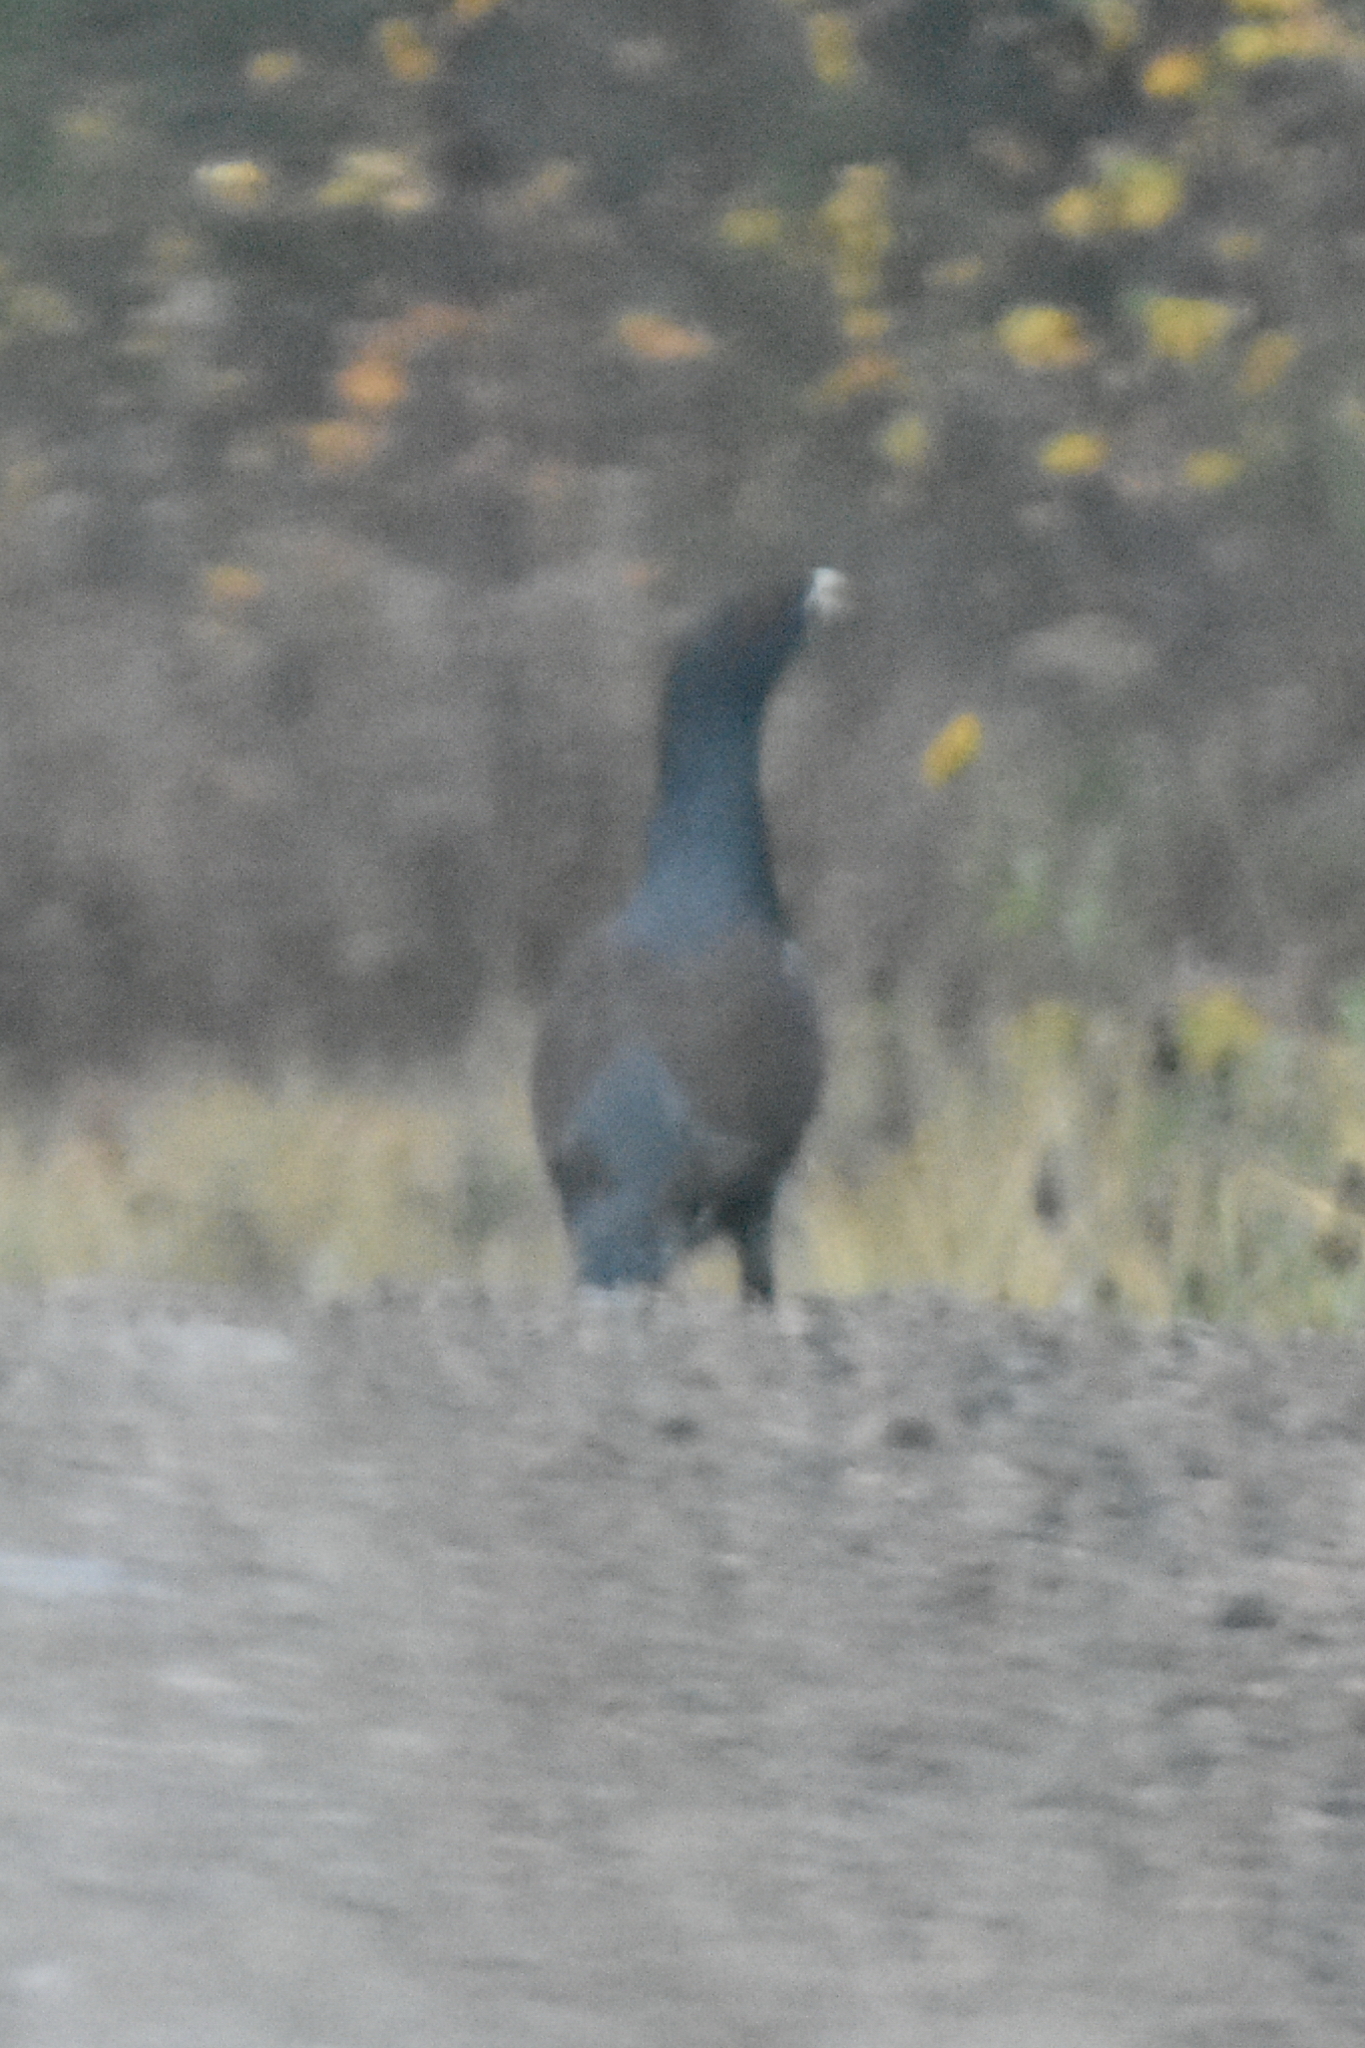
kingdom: Animalia
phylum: Chordata
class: Aves
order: Galliformes
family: Phasianidae
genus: Tetrao
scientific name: Tetrao urogallus
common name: Western capercaillie
